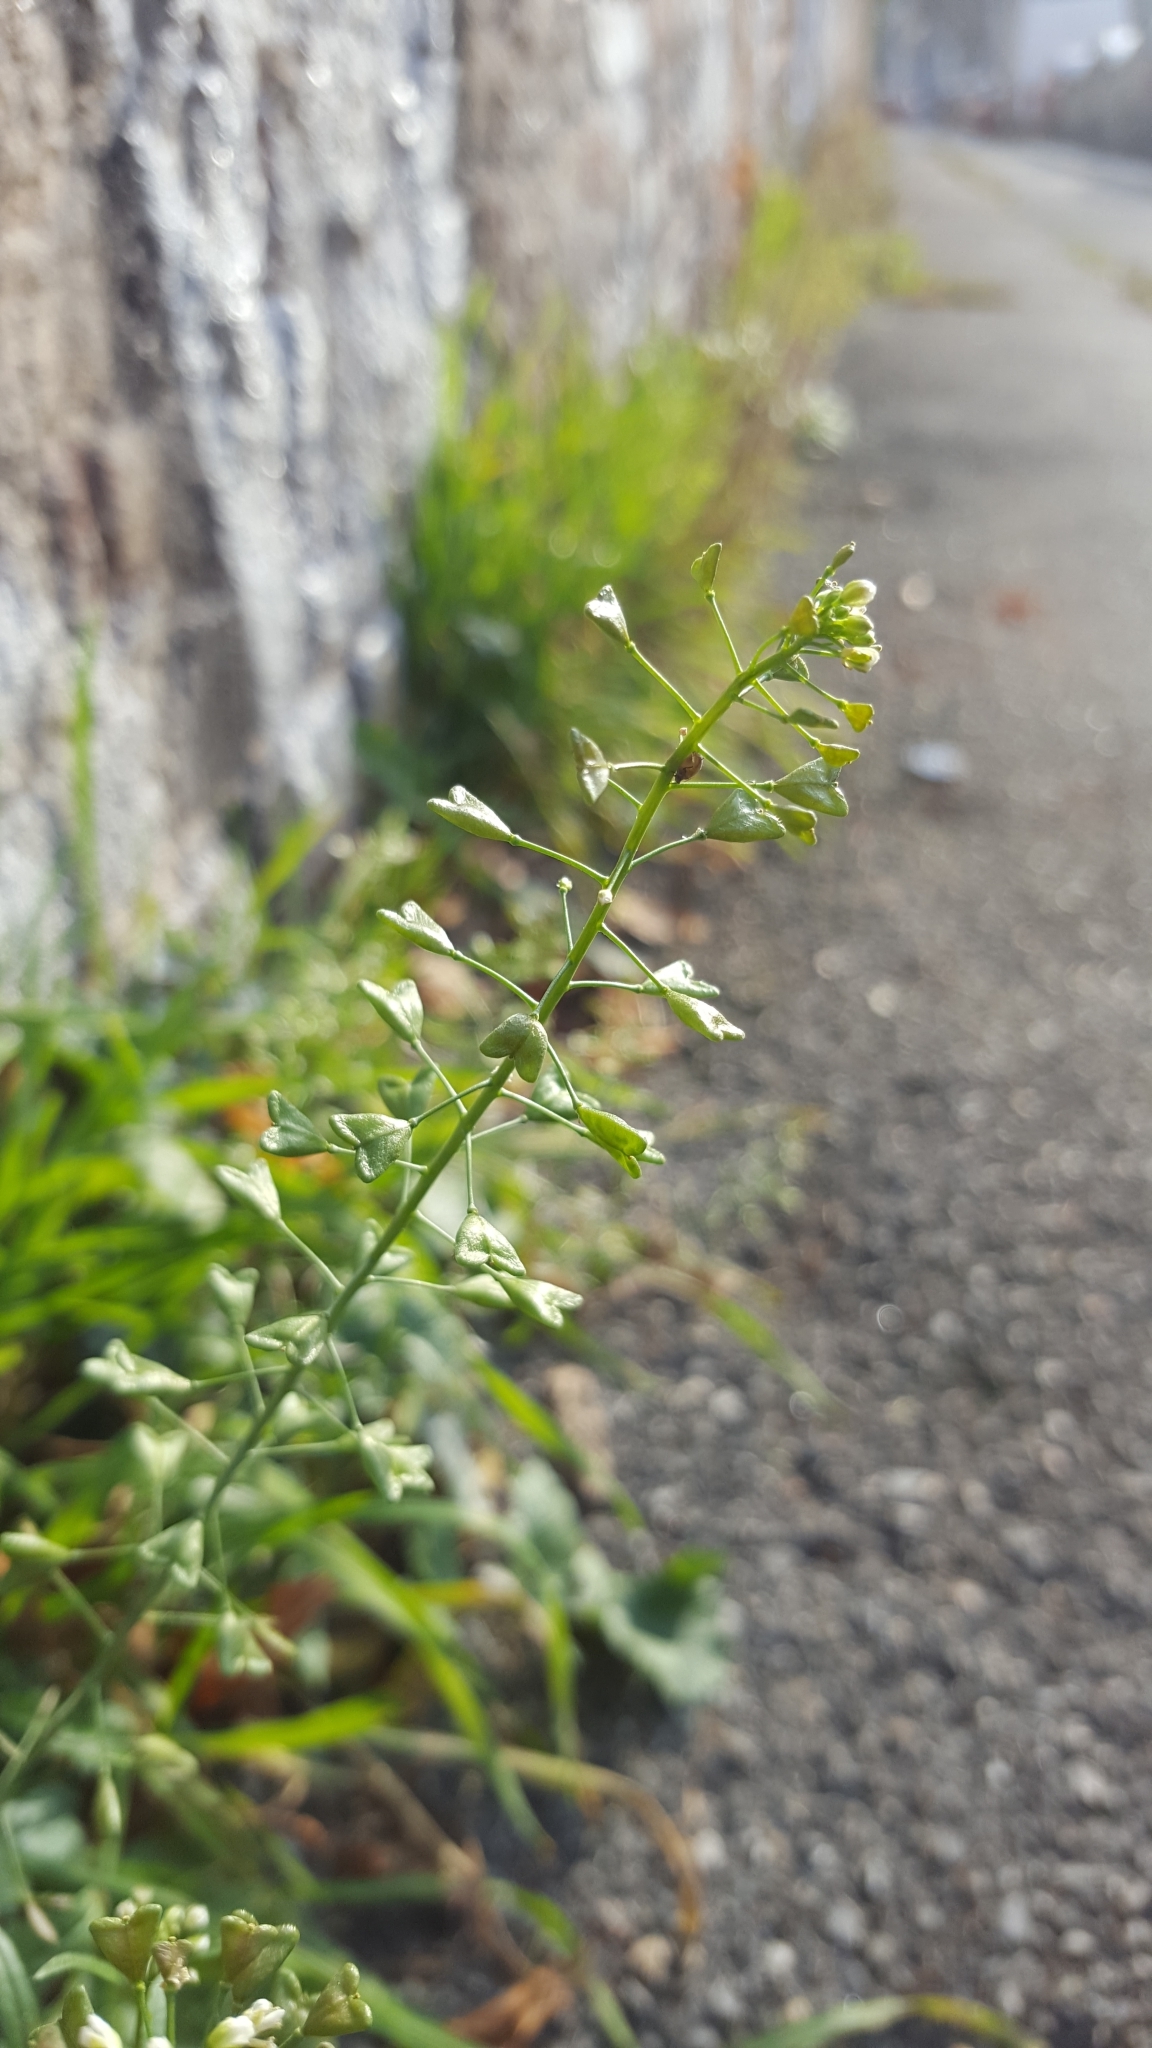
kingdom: Plantae
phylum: Tracheophyta
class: Magnoliopsida
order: Brassicales
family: Brassicaceae
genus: Capsella
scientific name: Capsella bursa-pastoris
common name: Shepherd's purse
